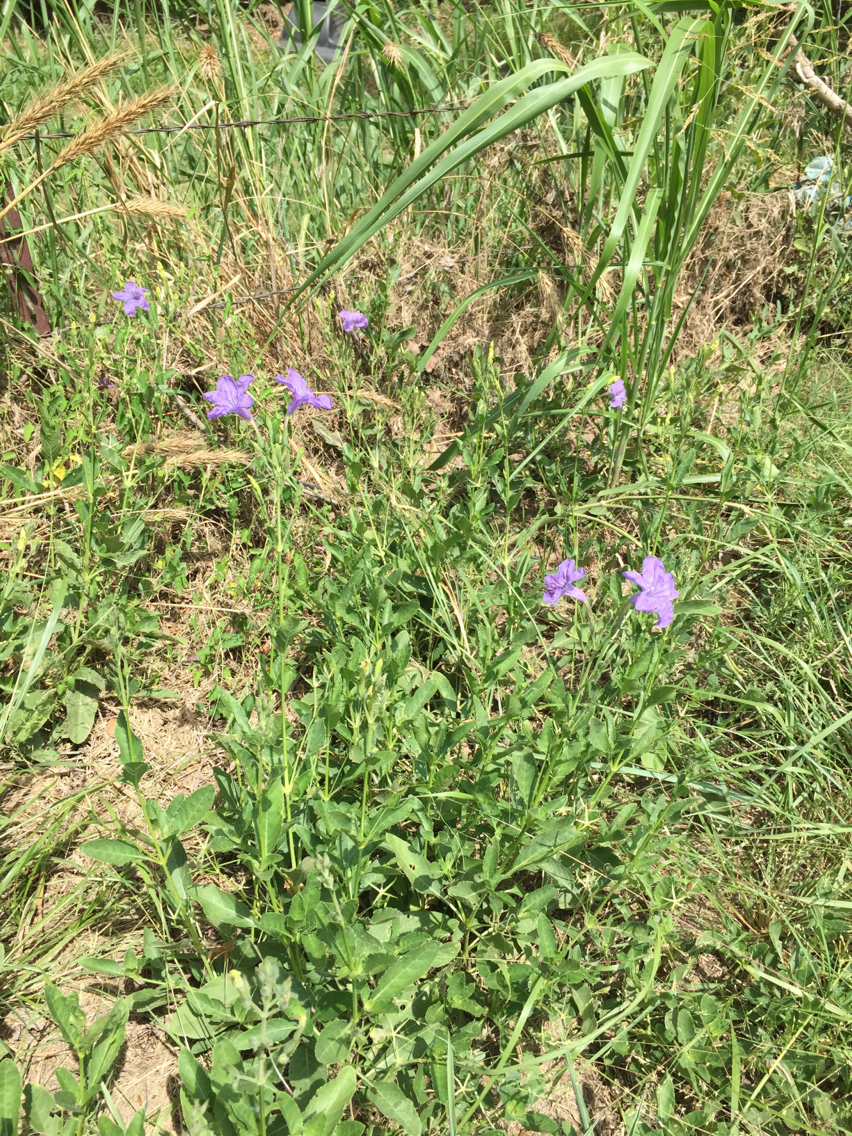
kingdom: Plantae
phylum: Tracheophyta
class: Magnoliopsida
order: Lamiales
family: Acanthaceae
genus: Ruellia
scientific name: Ruellia ciliatiflora
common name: Hairyflower wild petunia
